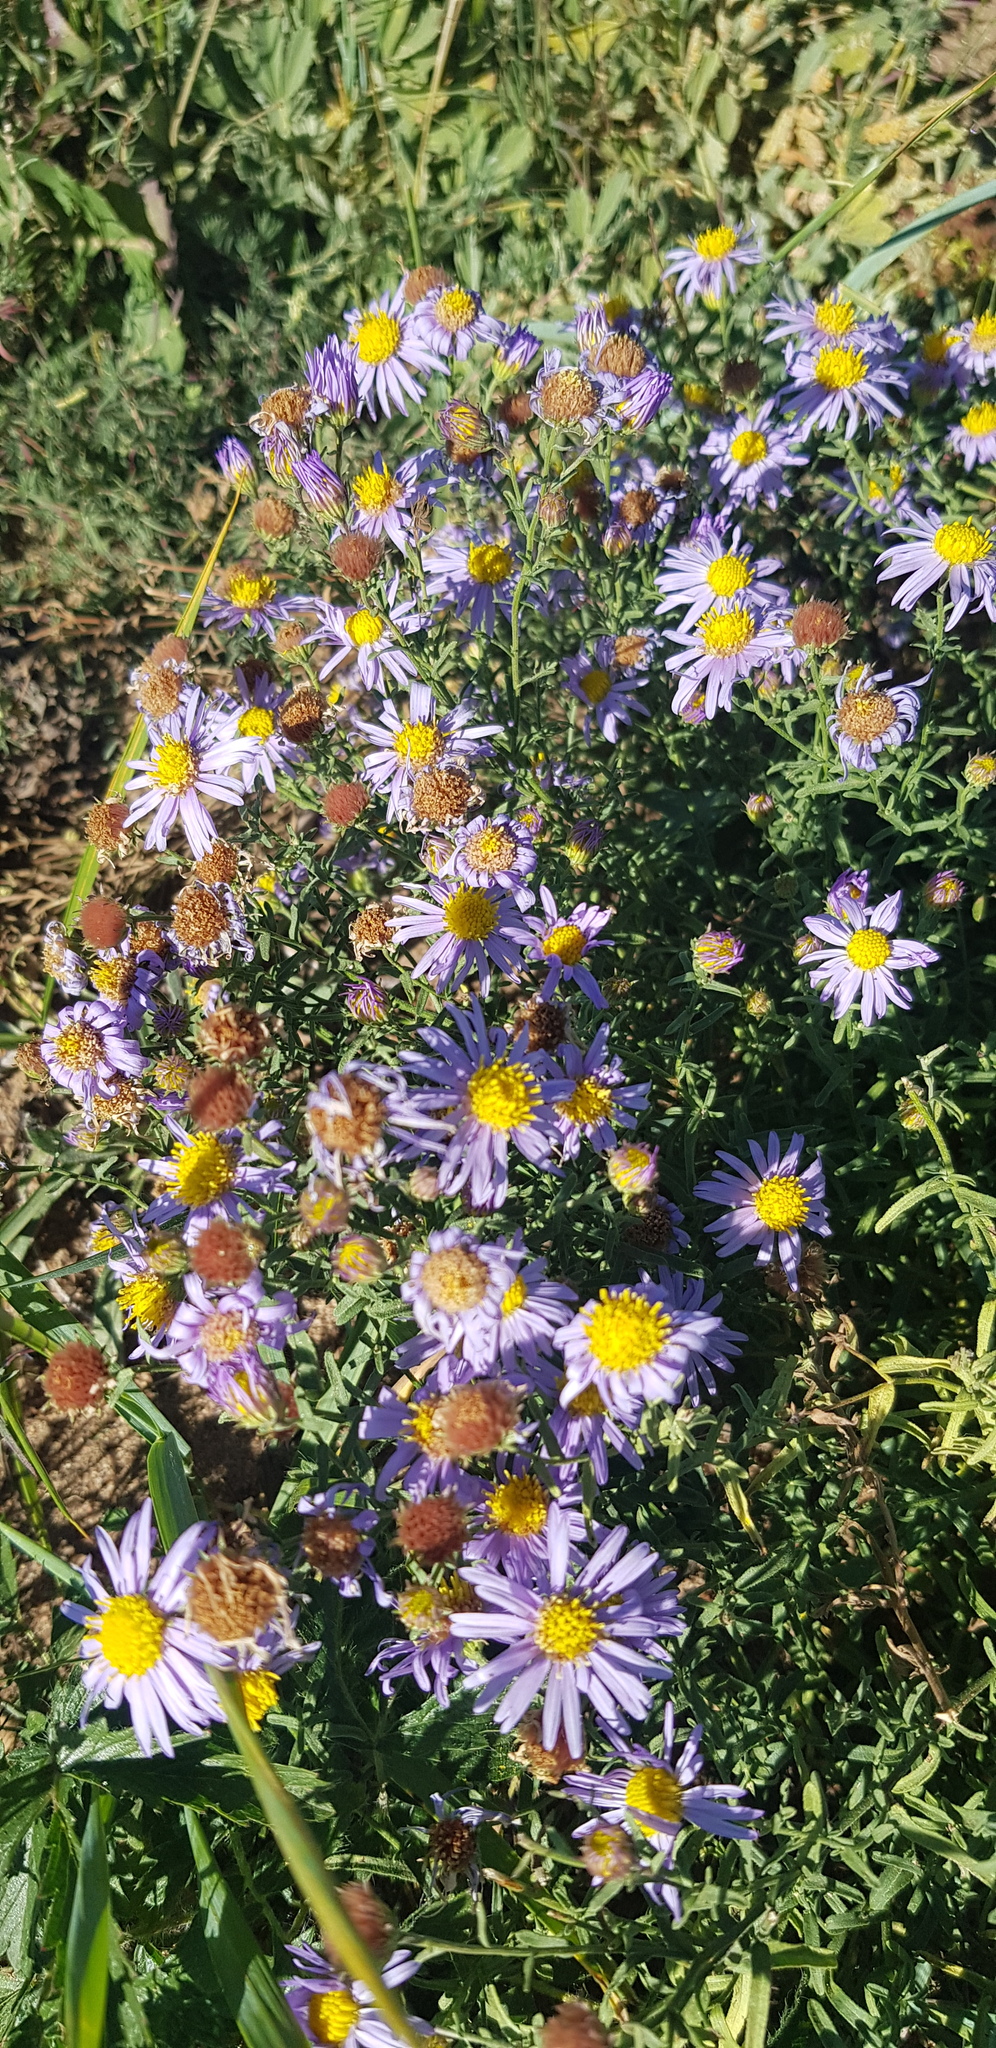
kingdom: Plantae
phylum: Tracheophyta
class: Magnoliopsida
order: Asterales
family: Asteraceae
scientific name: Asteraceae
